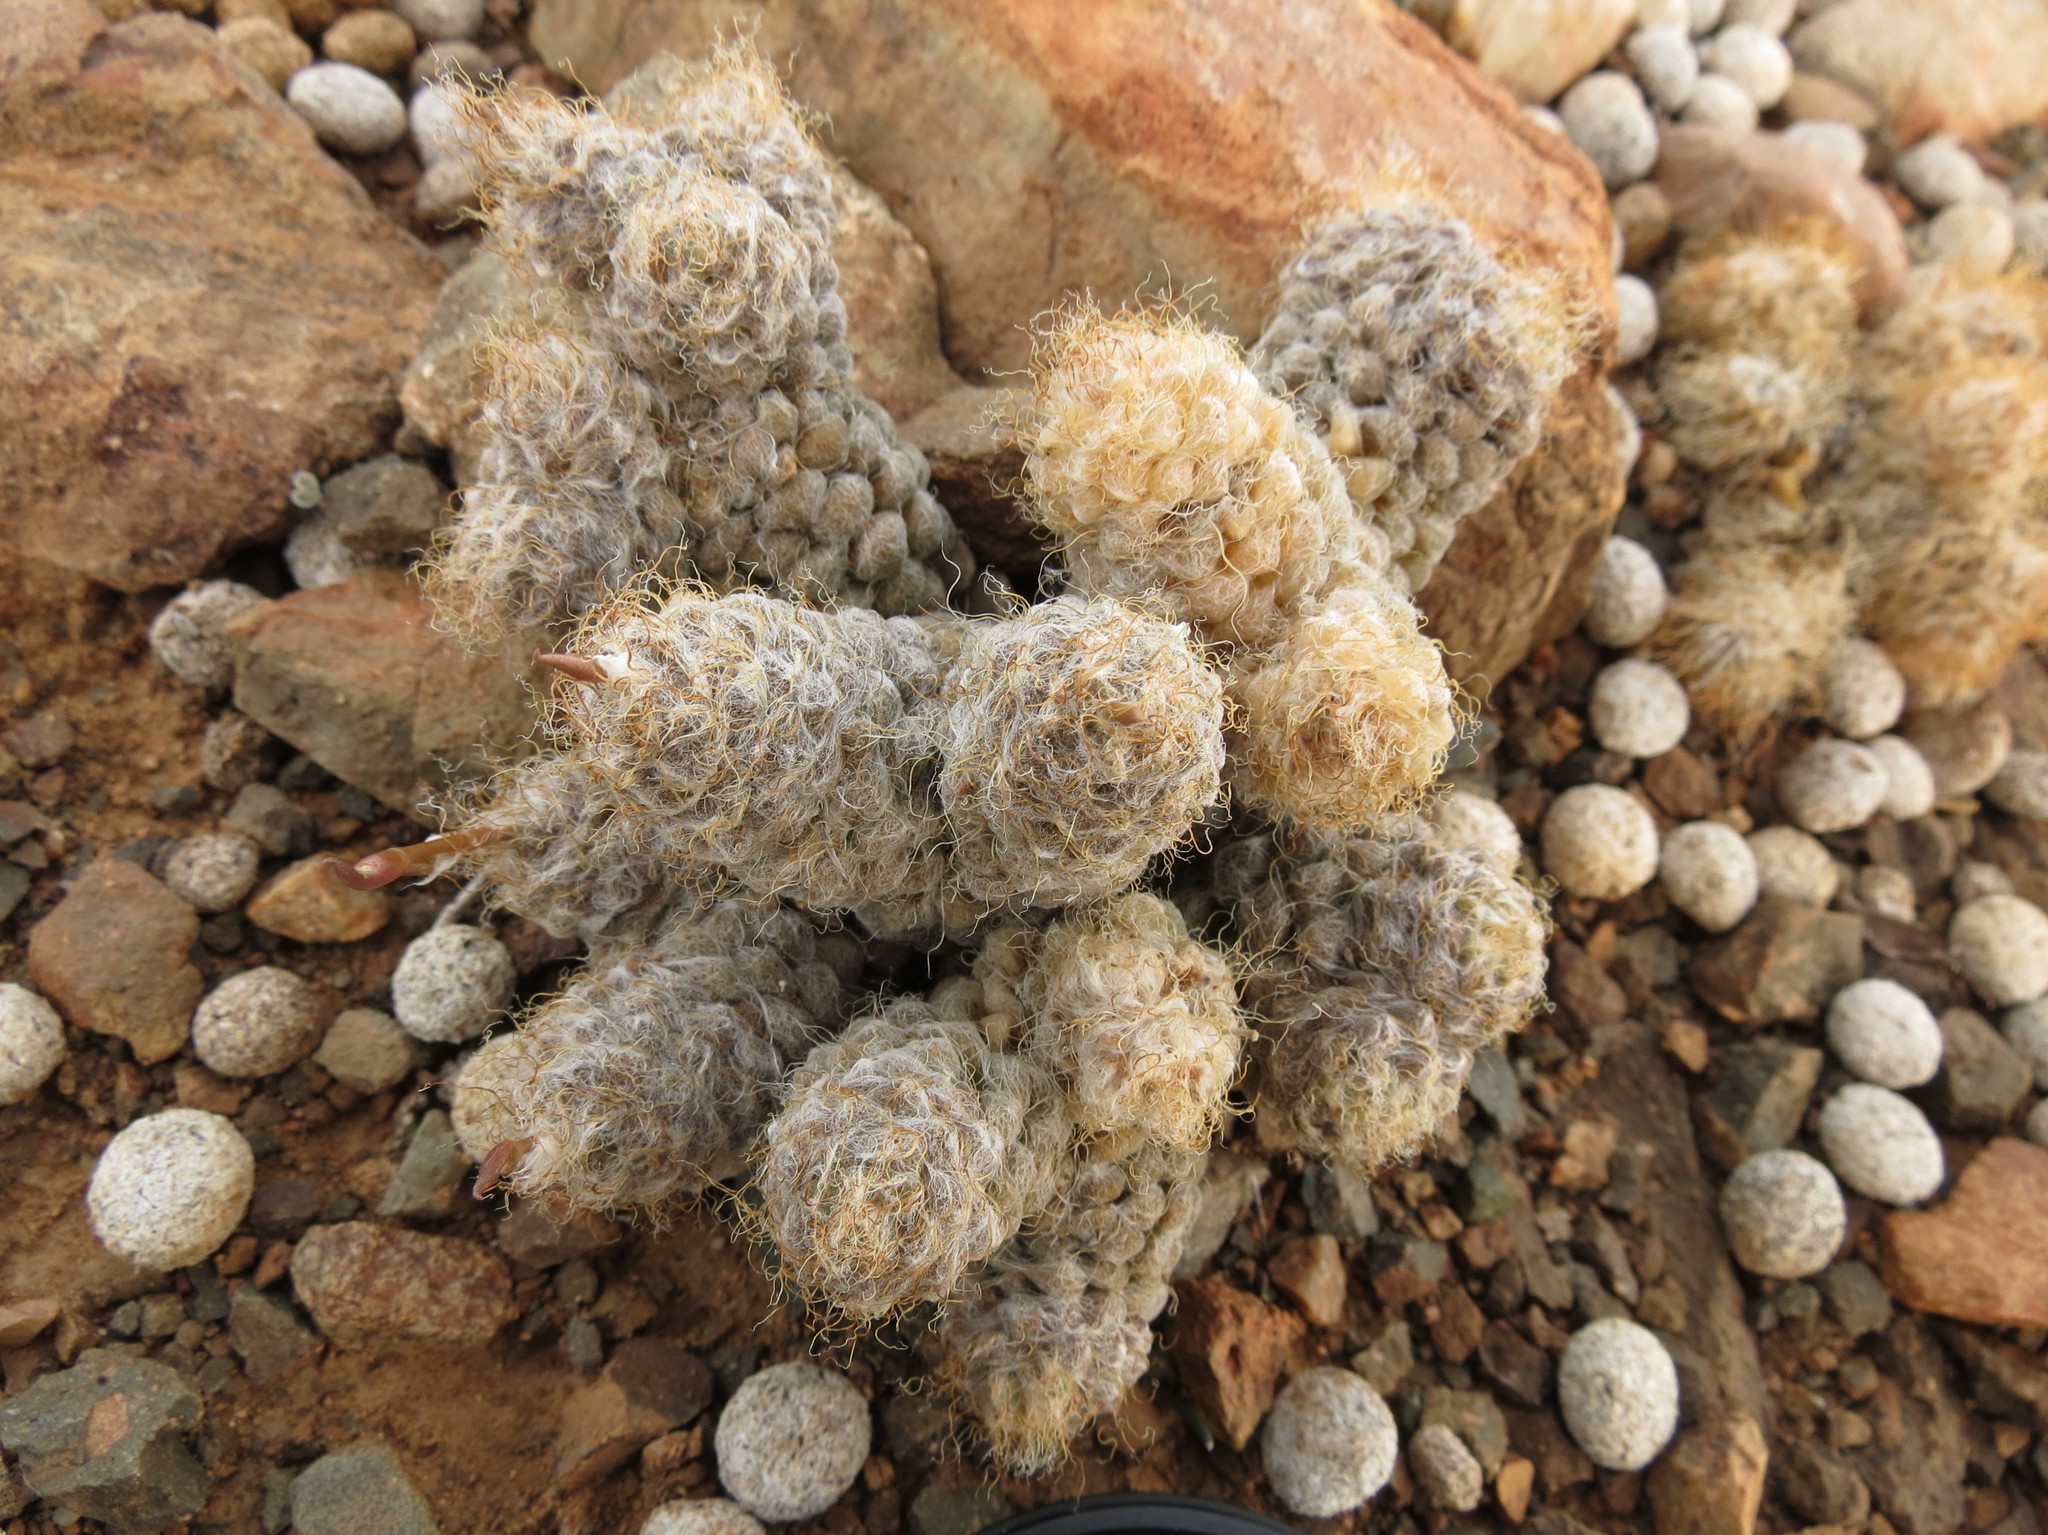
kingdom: Plantae
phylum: Tracheophyta
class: Magnoliopsida
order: Caryophyllales
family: Anacampserotaceae
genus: Anacampseros
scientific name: Anacampseros albidiflora
